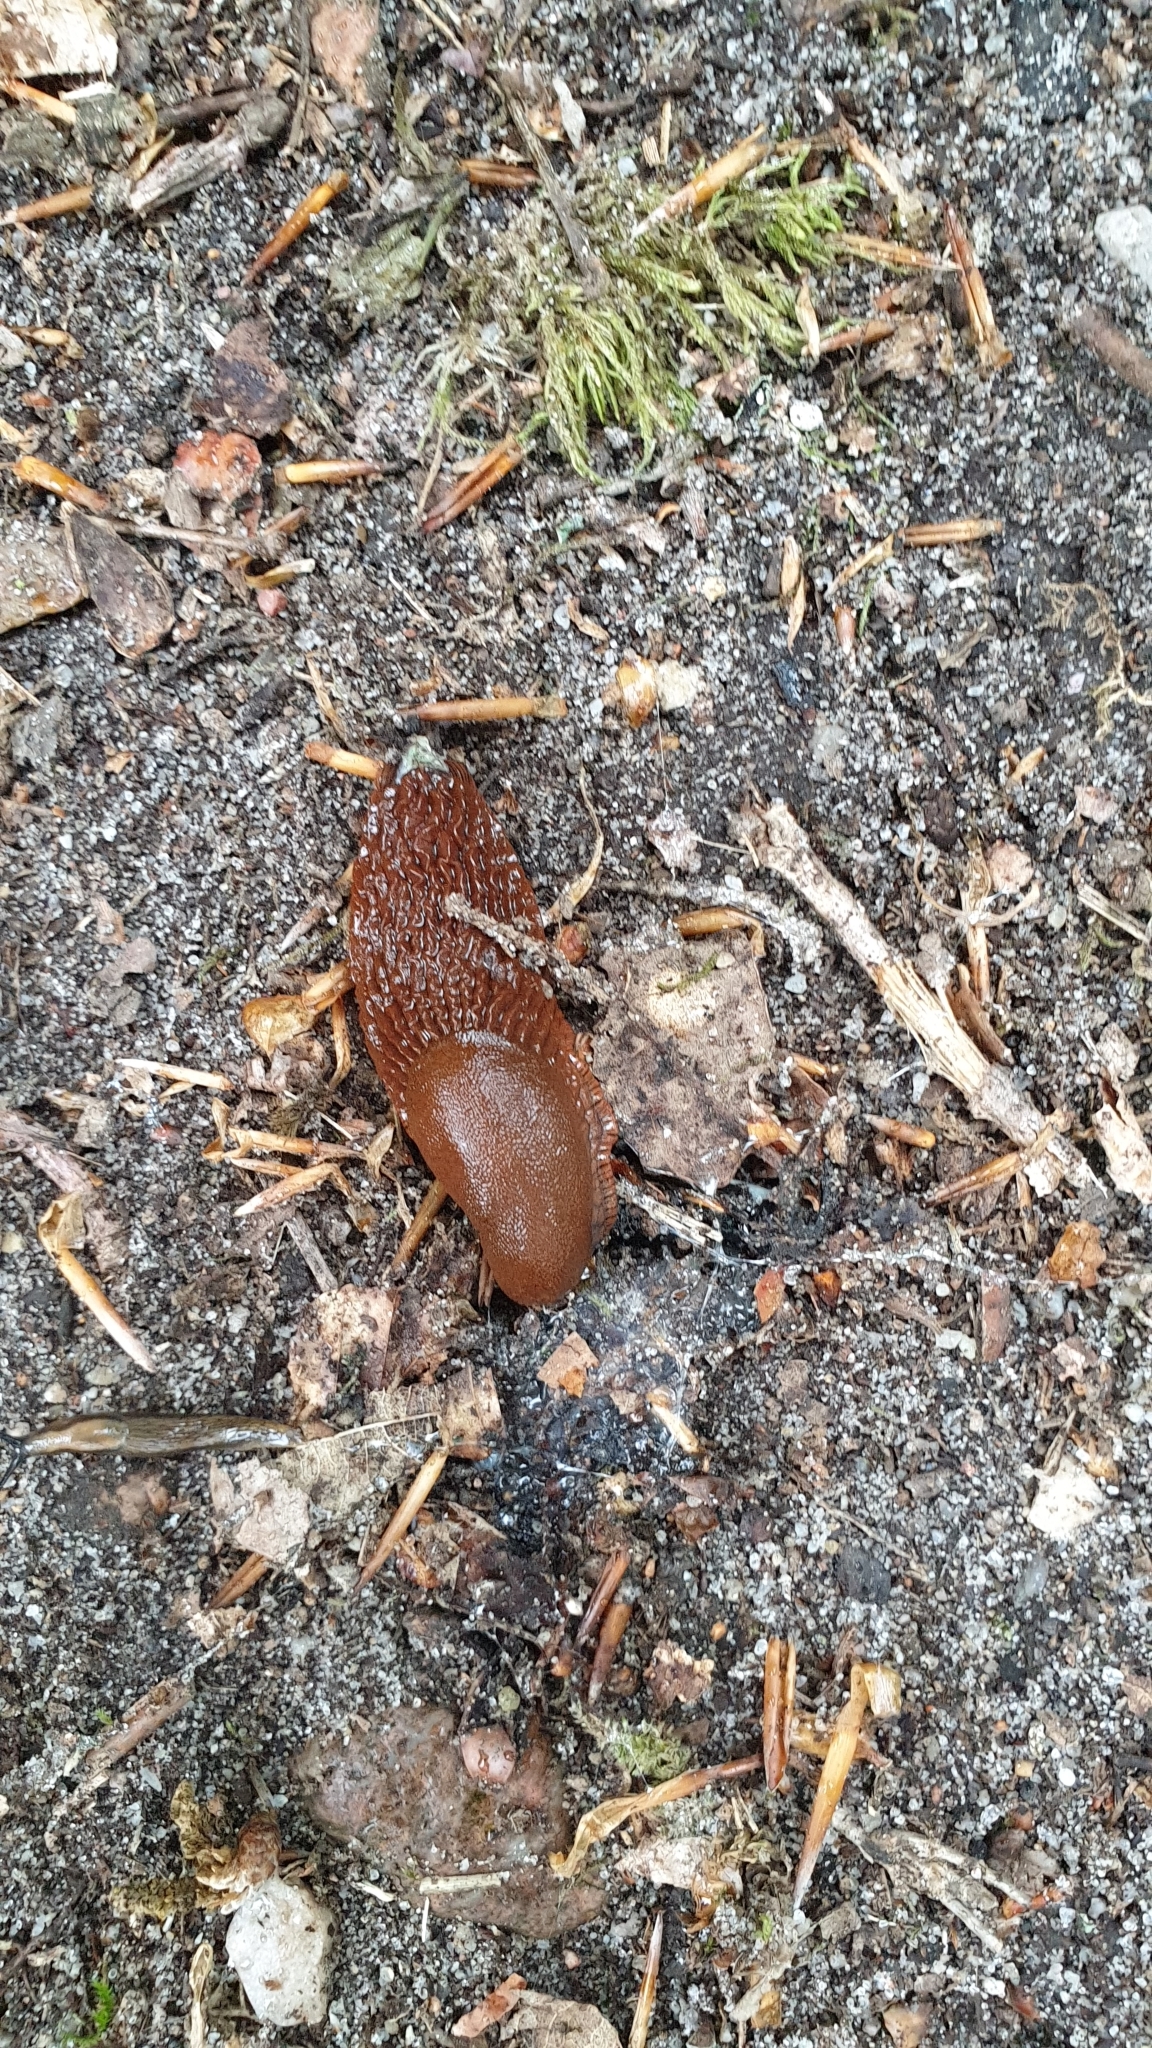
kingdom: Animalia
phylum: Mollusca
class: Gastropoda
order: Stylommatophora
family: Arionidae
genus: Arion
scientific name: Arion vulgaris
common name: Lusitanian slug
